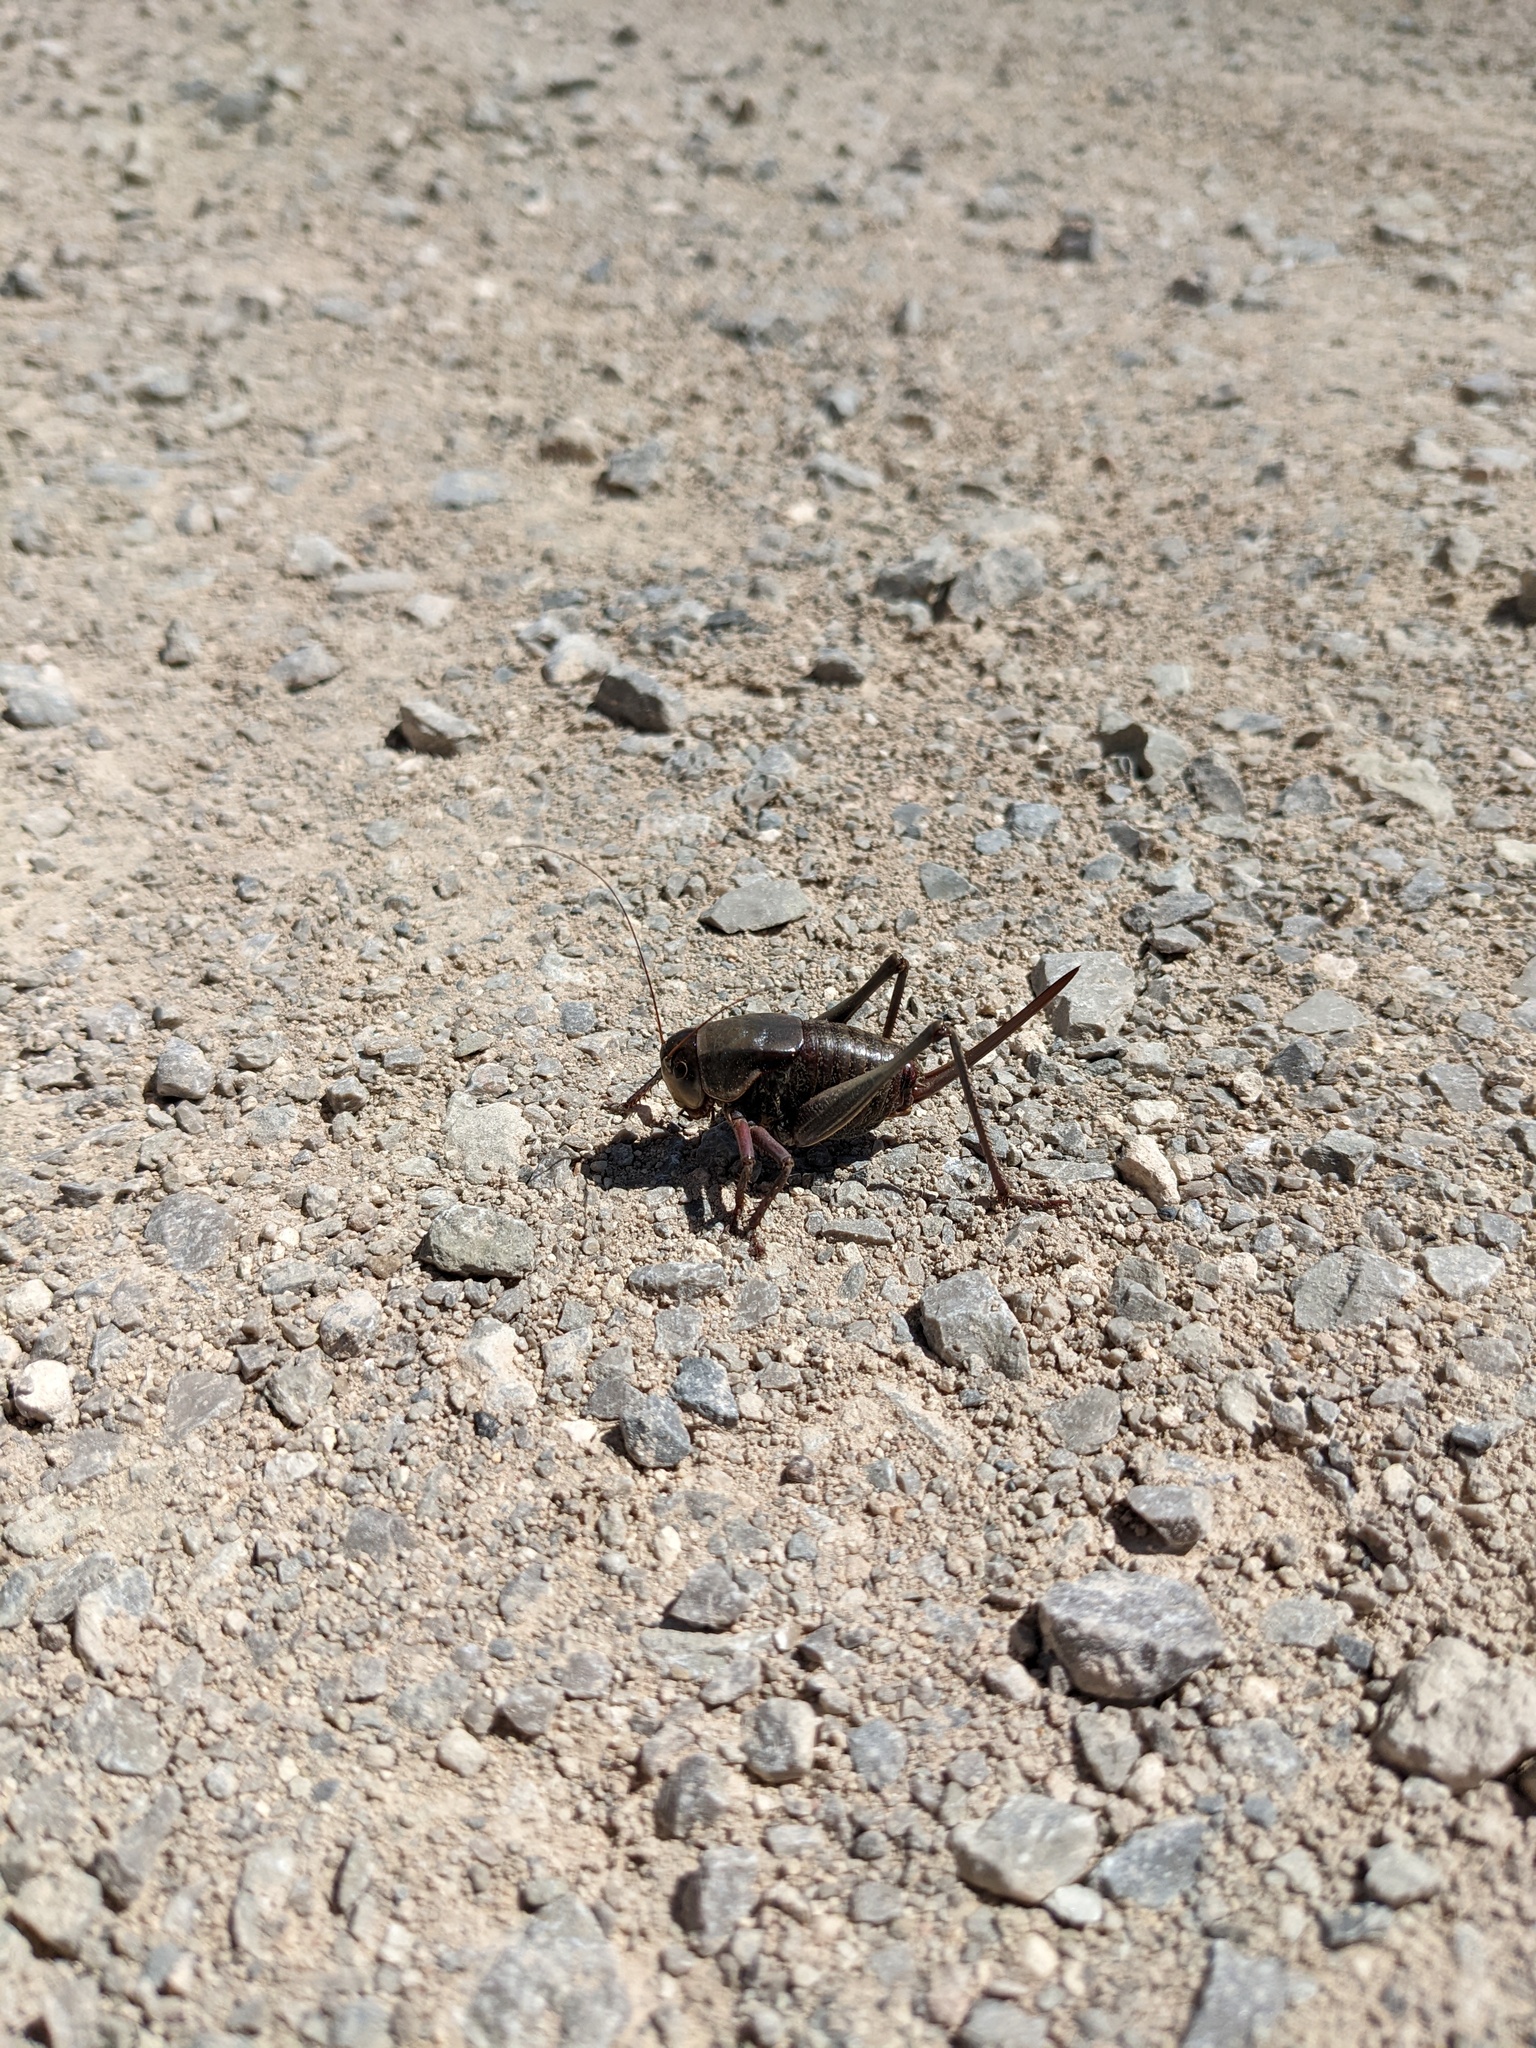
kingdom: Animalia
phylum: Arthropoda
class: Insecta
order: Orthoptera
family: Tettigoniidae
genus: Anabrus
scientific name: Anabrus simplex
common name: Mormon cricket
